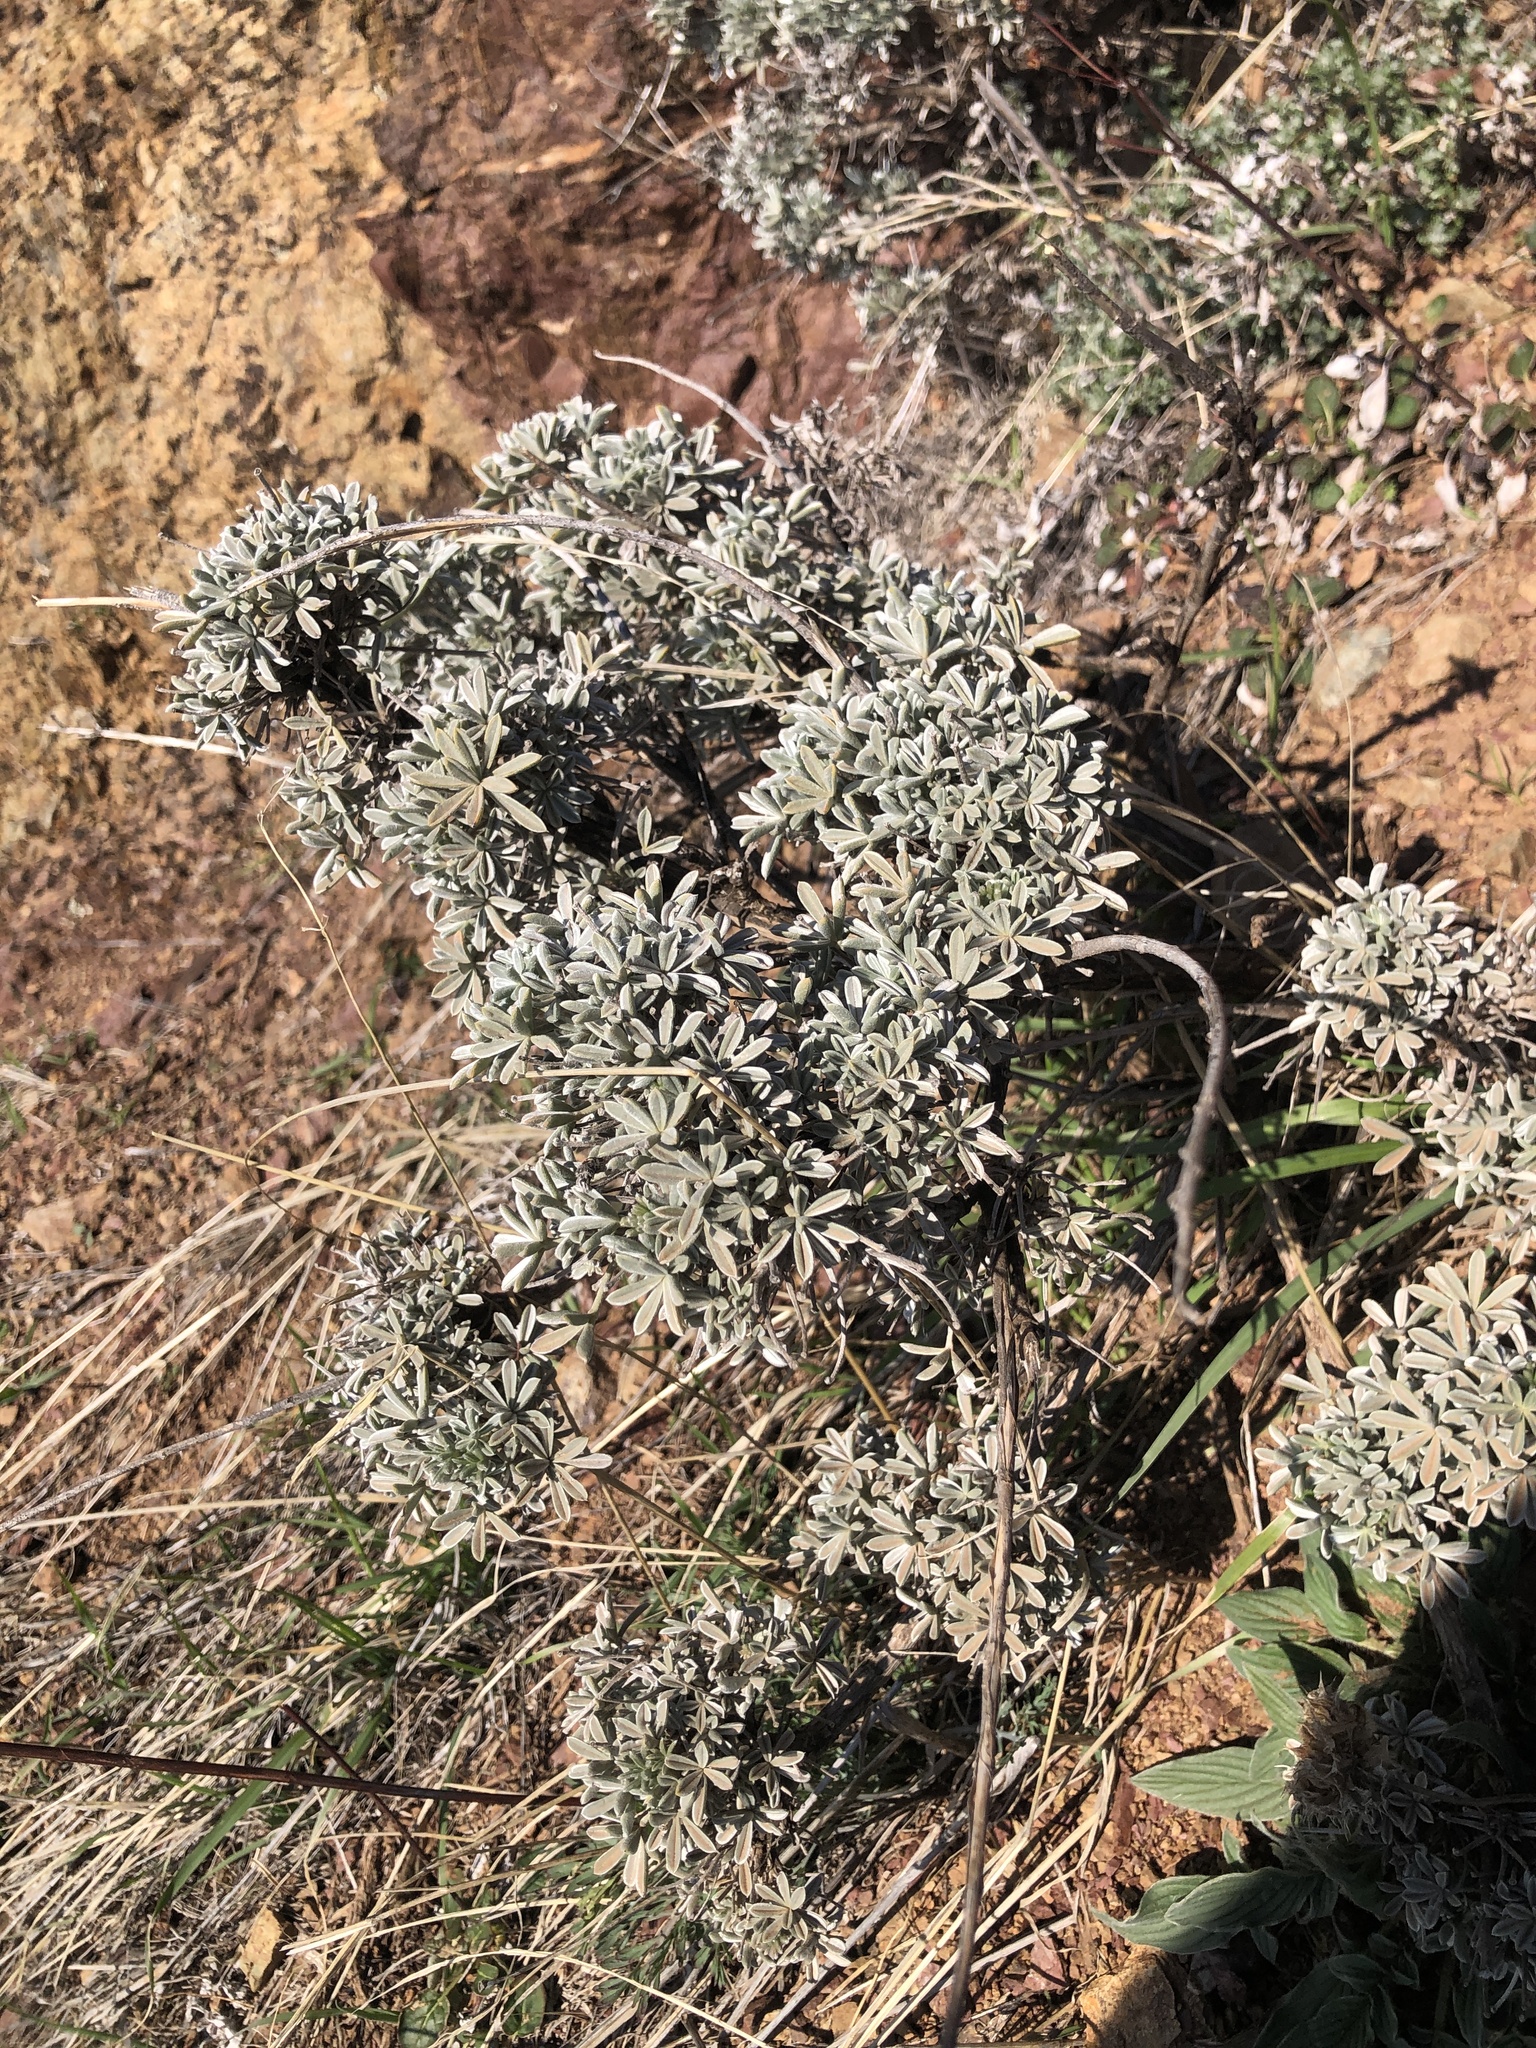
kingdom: Plantae
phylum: Tracheophyta
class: Magnoliopsida
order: Fabales
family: Fabaceae
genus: Lupinus
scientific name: Lupinus albifrons
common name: Foothill lupine
